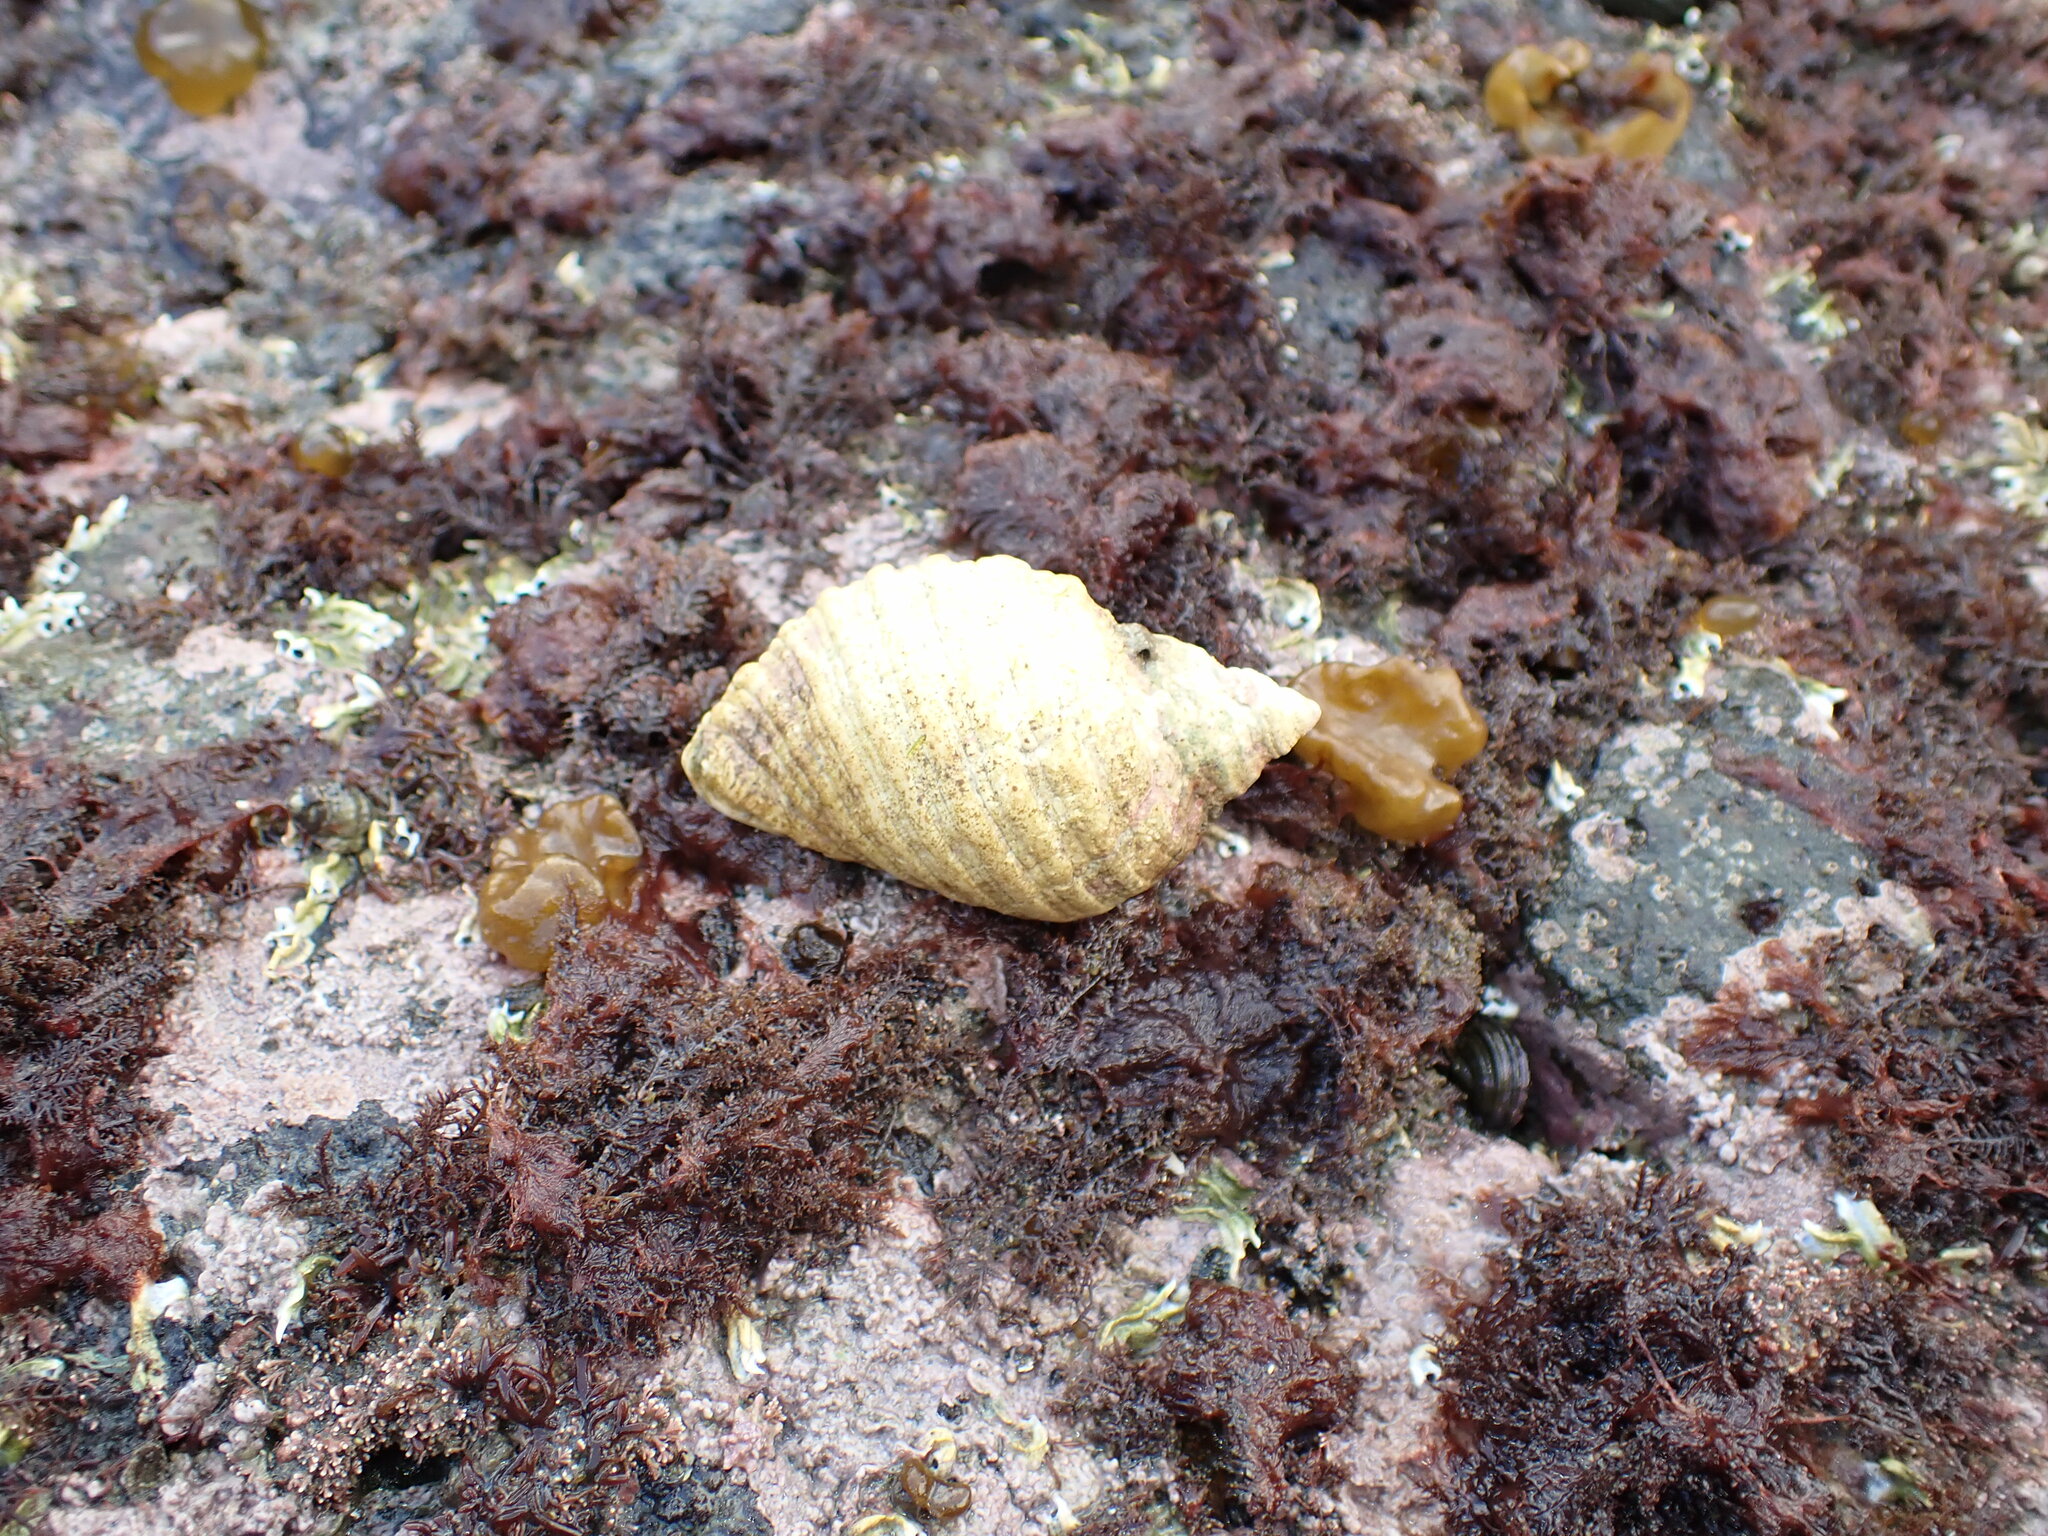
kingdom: Animalia
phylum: Mollusca
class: Gastropoda
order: Neogastropoda
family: Muricidae
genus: Dicathais
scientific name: Dicathais orbita
